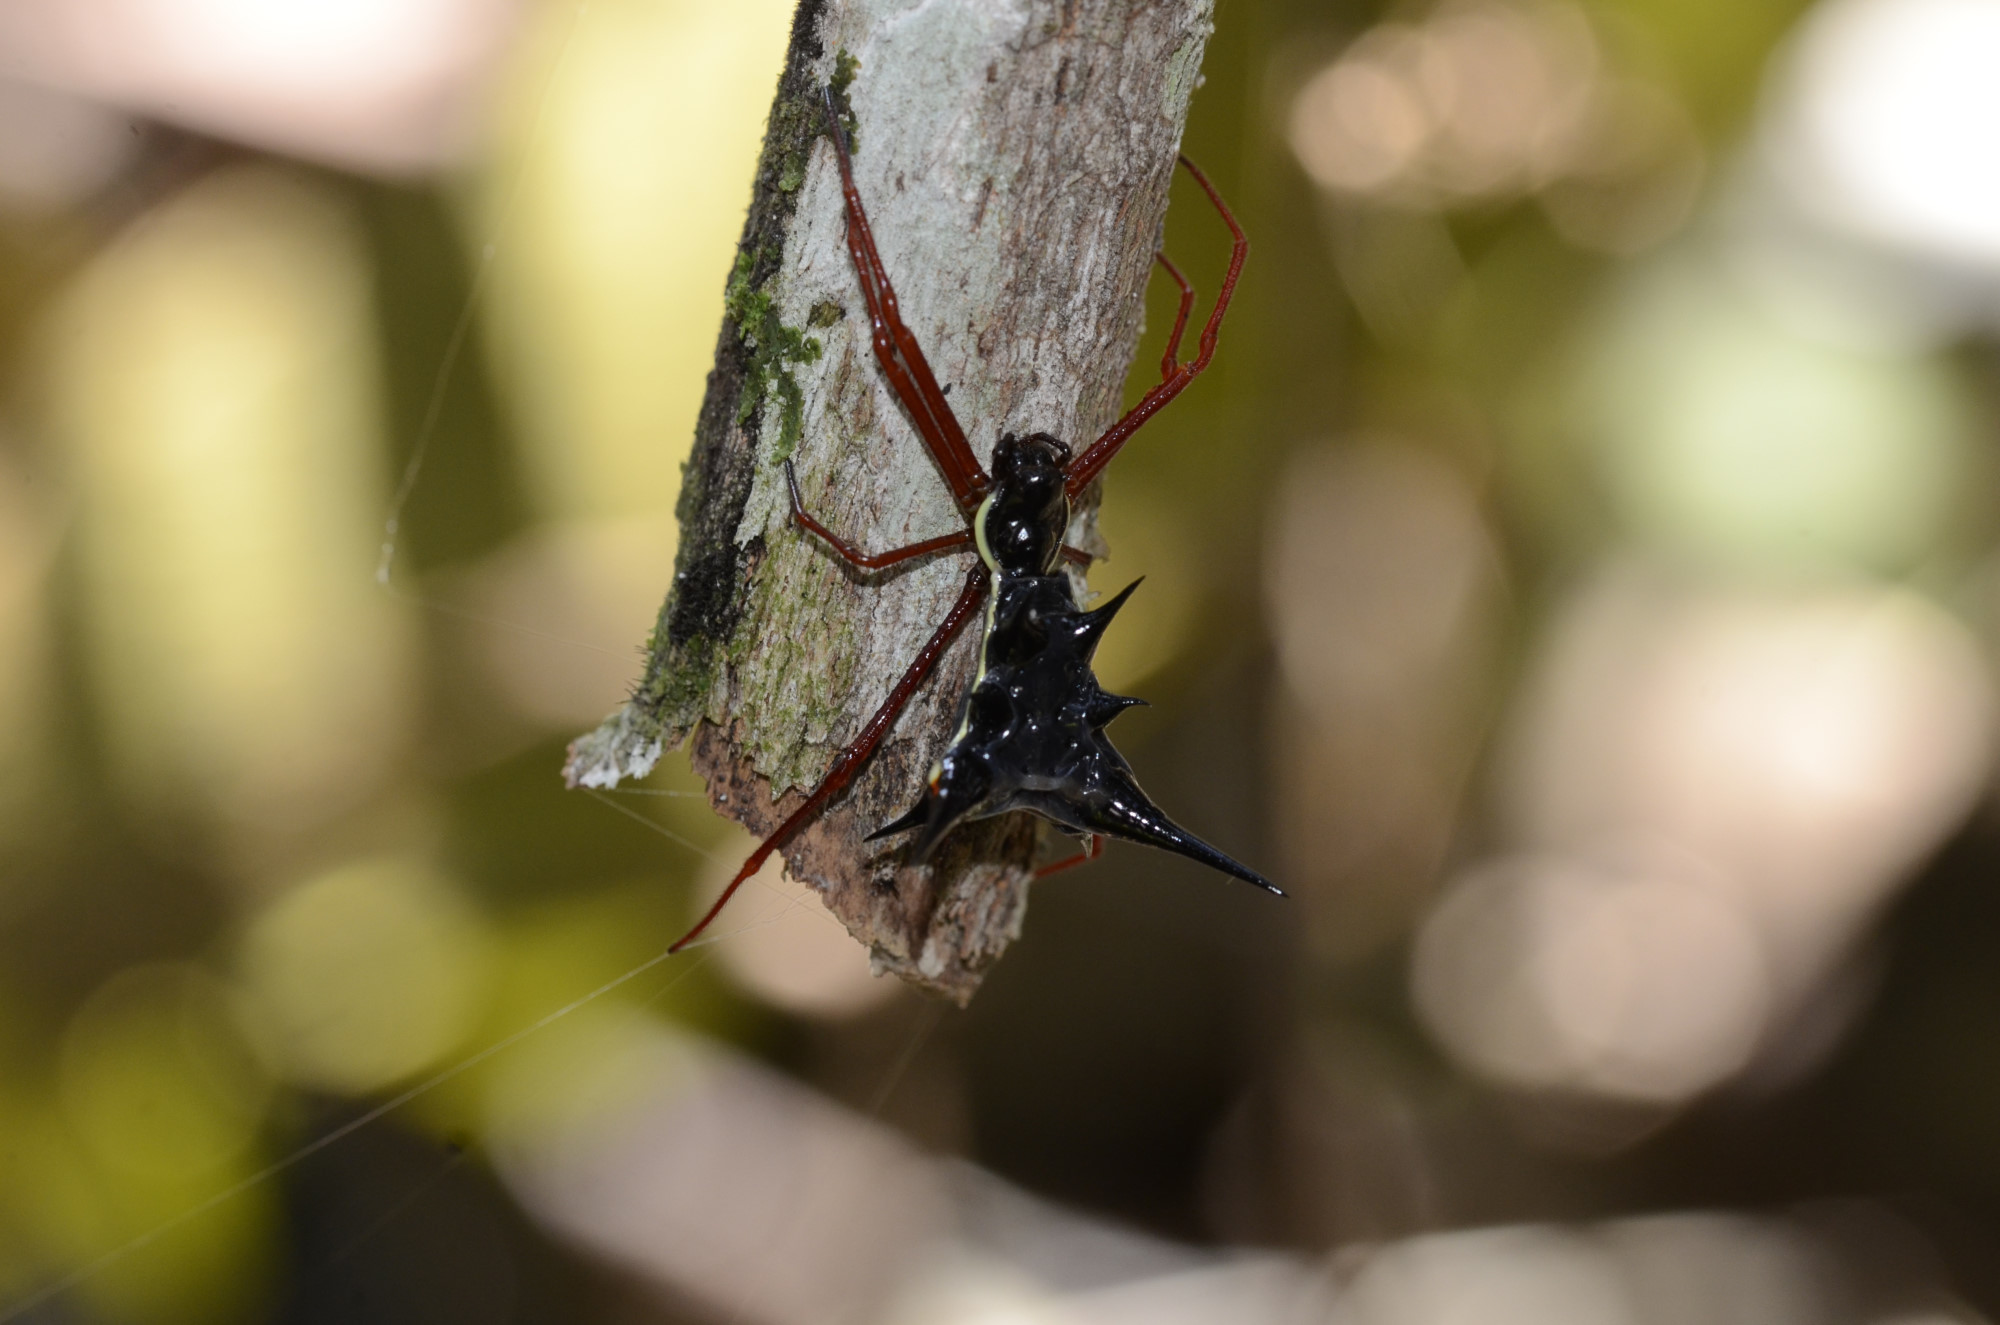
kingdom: Animalia
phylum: Arthropoda
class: Arachnida
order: Araneae
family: Araneidae
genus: Micrathena
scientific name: Micrathena schreibersi
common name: Orb weavers
